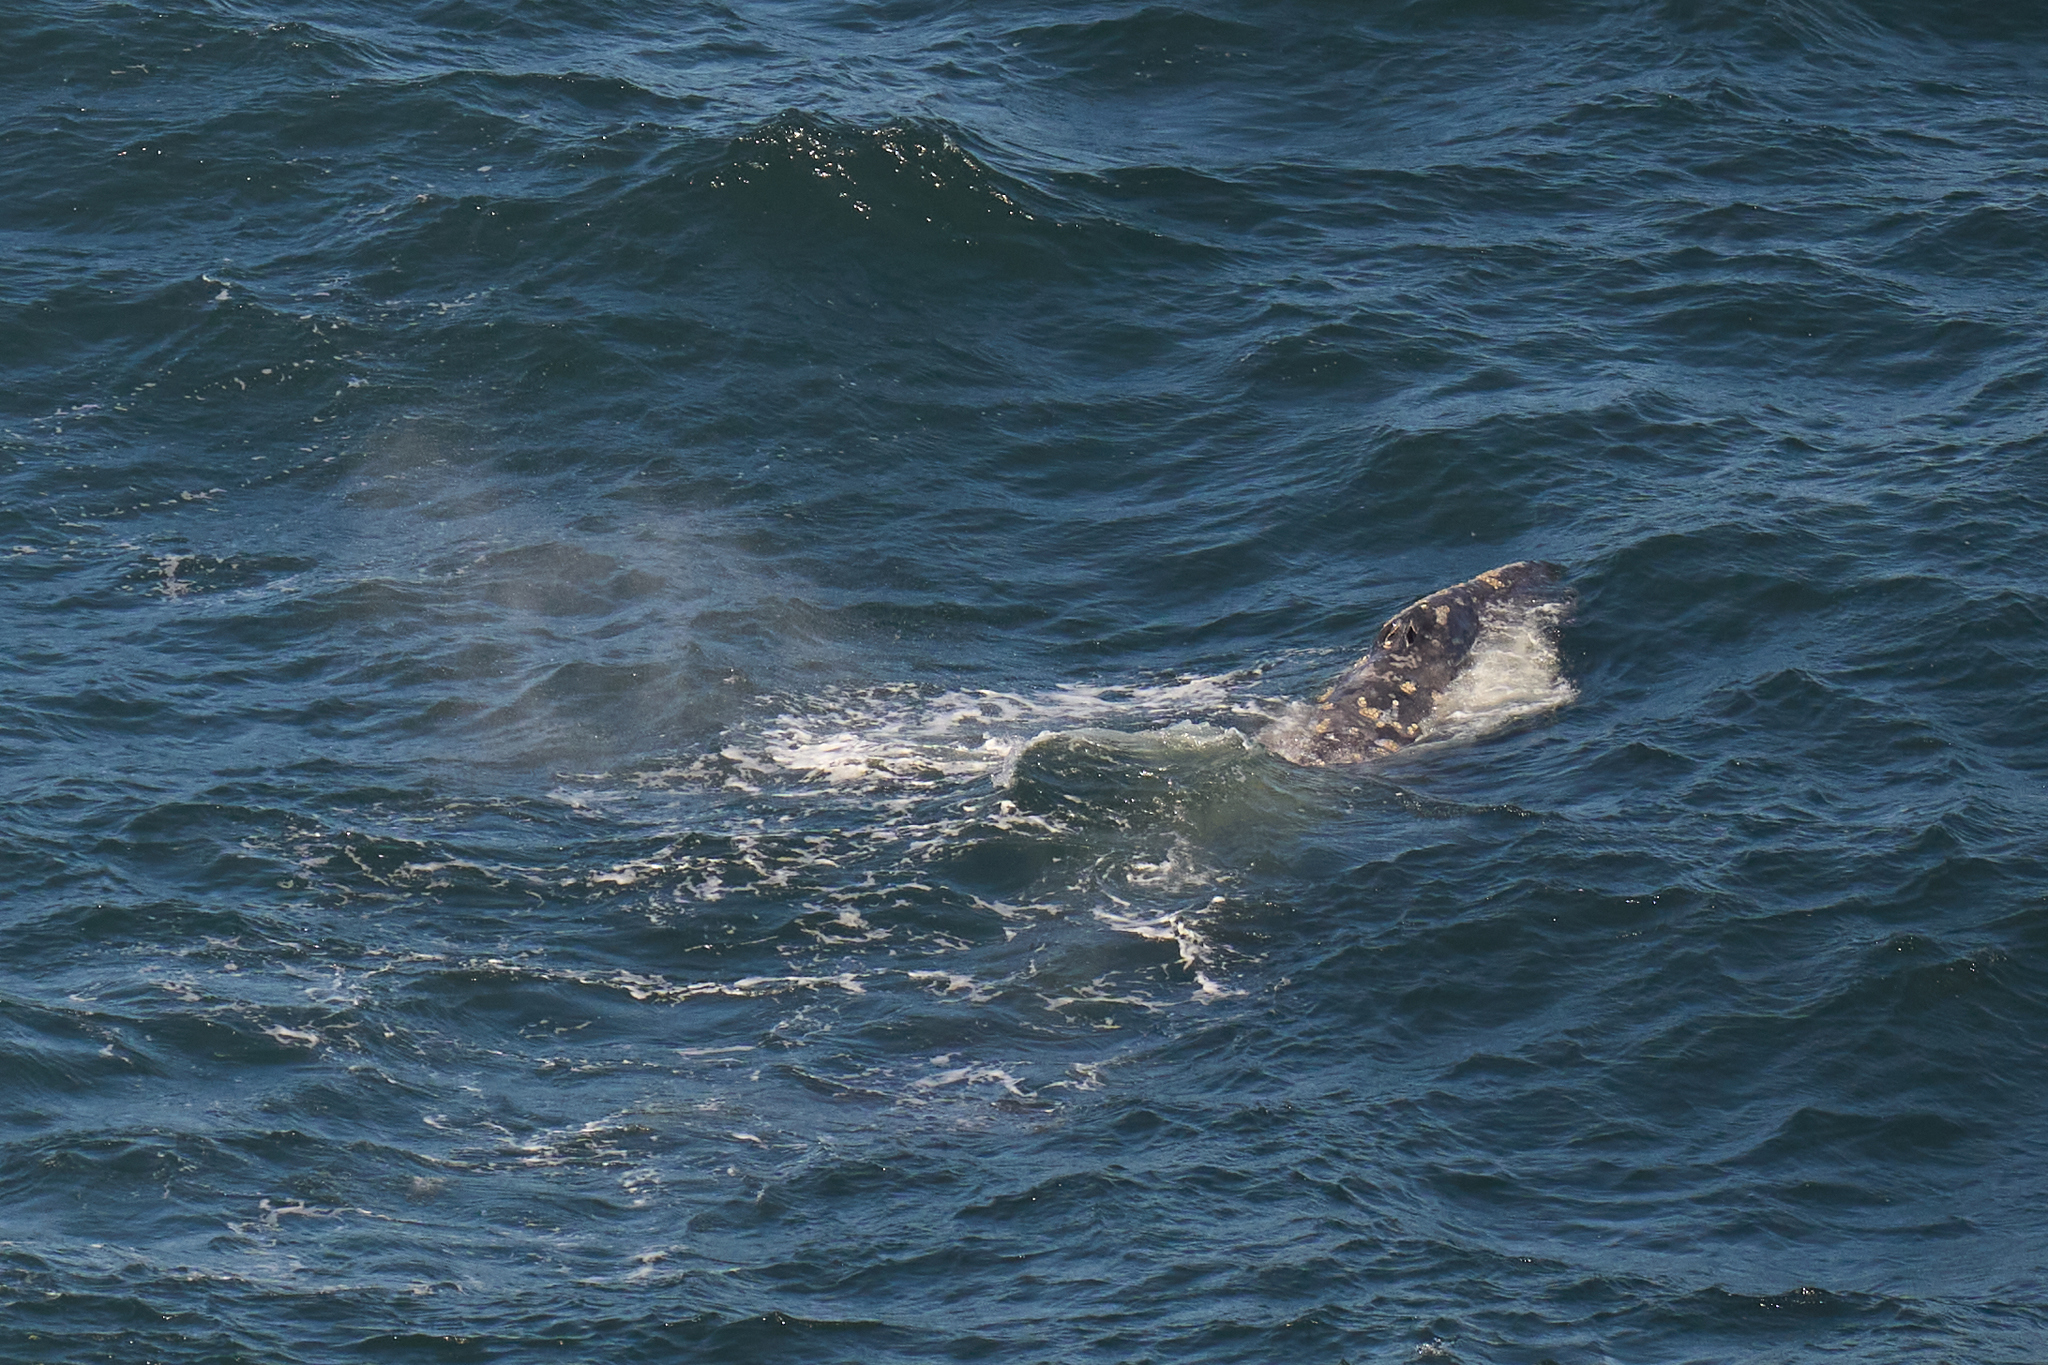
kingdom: Animalia
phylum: Chordata
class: Mammalia
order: Cetacea
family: Eschrichtiidae
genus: Eschrichtius
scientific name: Eschrichtius robustus
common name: Gray whale
